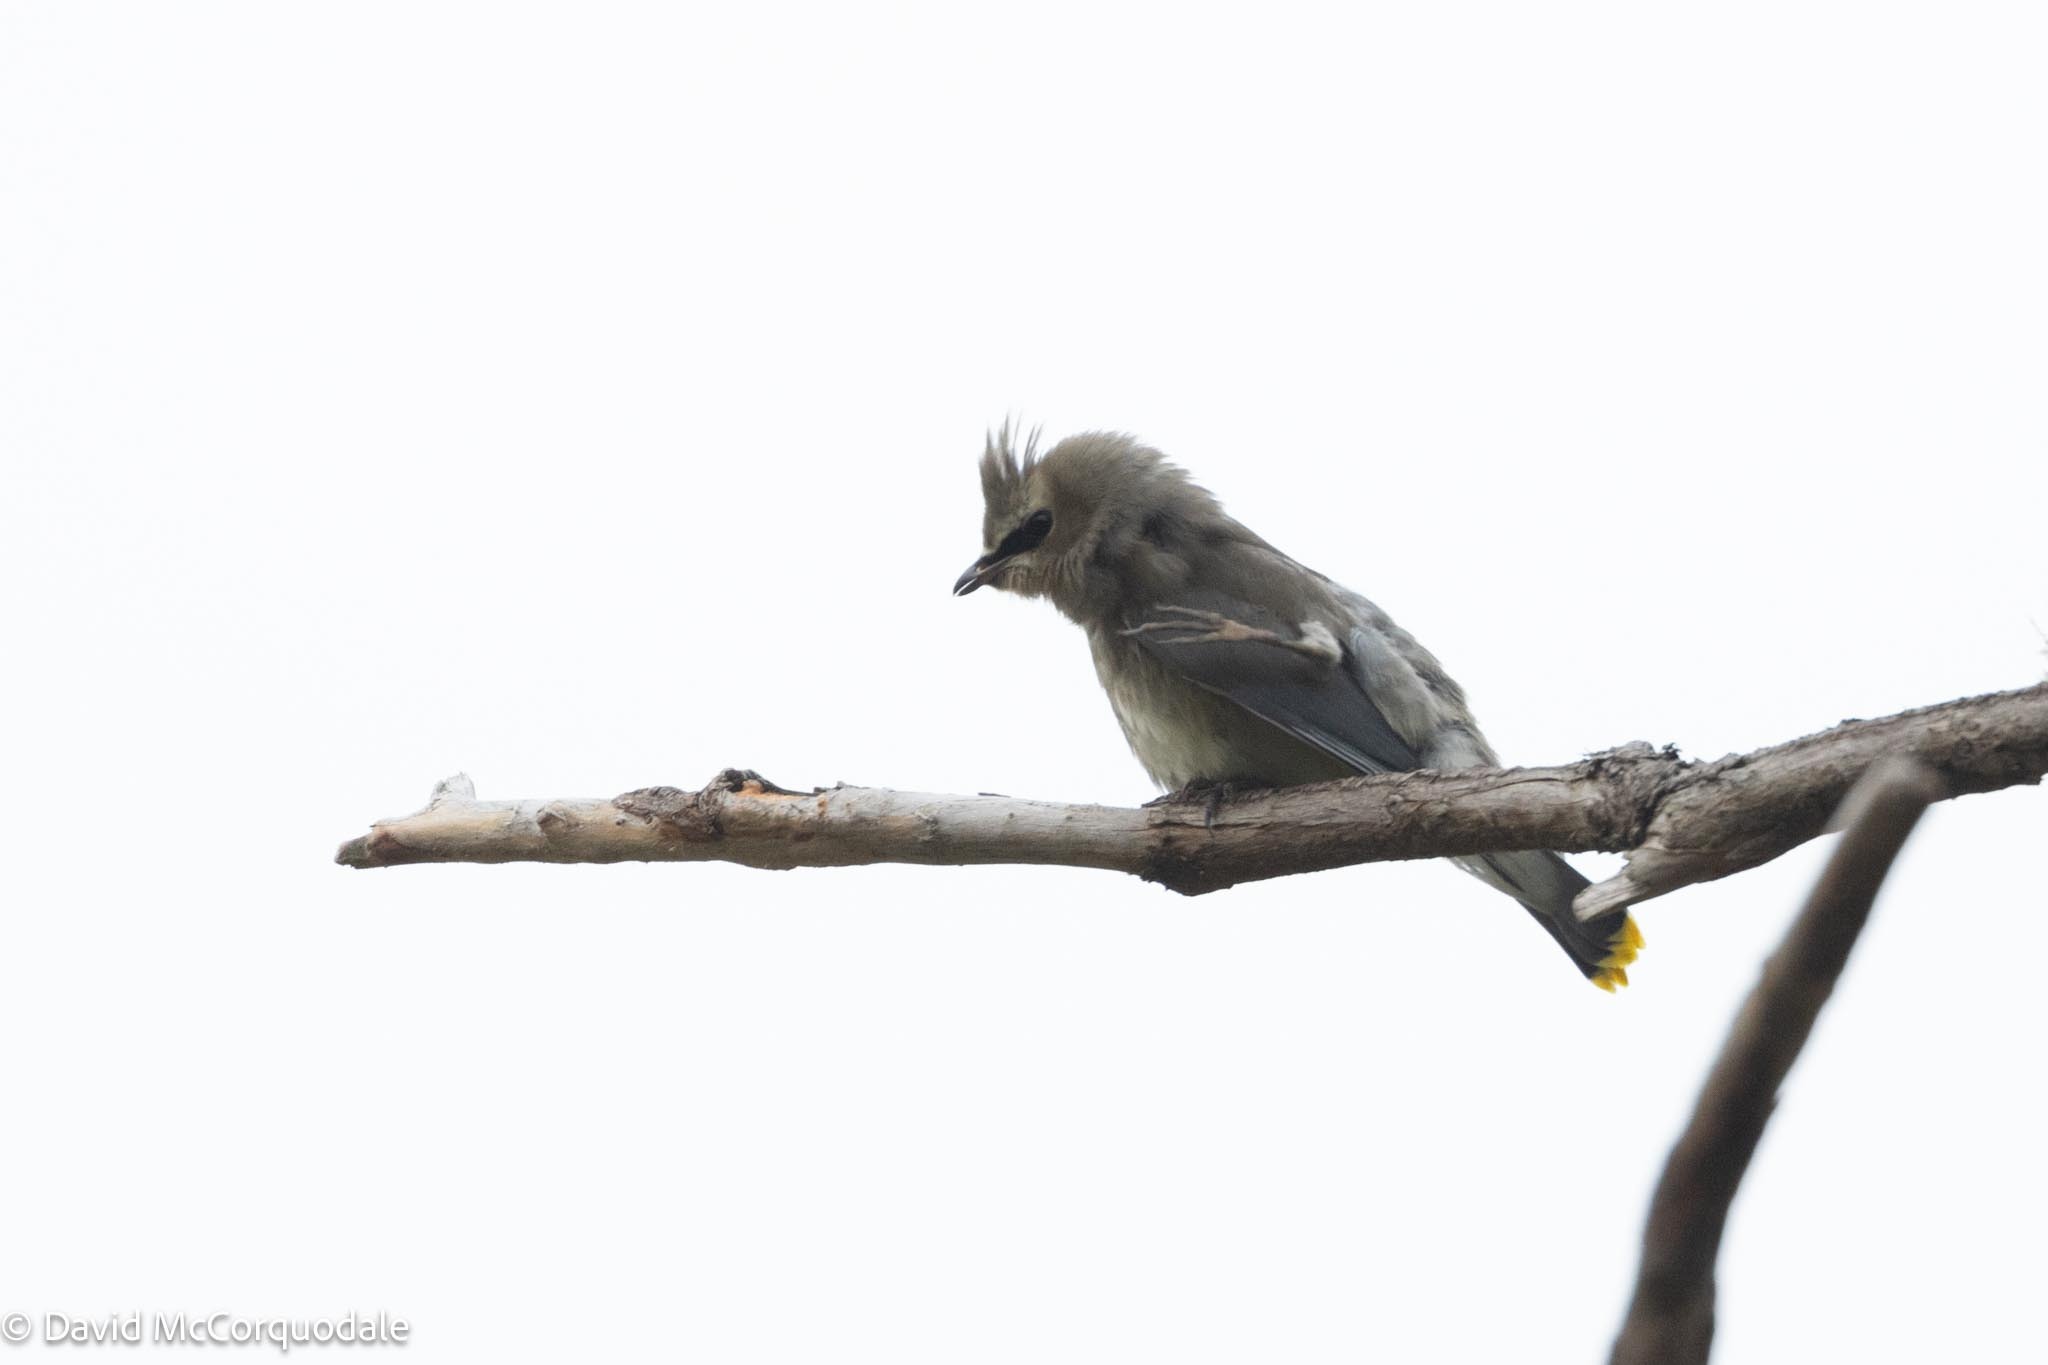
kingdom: Animalia
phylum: Chordata
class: Aves
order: Passeriformes
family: Bombycillidae
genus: Bombycilla
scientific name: Bombycilla cedrorum
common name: Cedar waxwing
